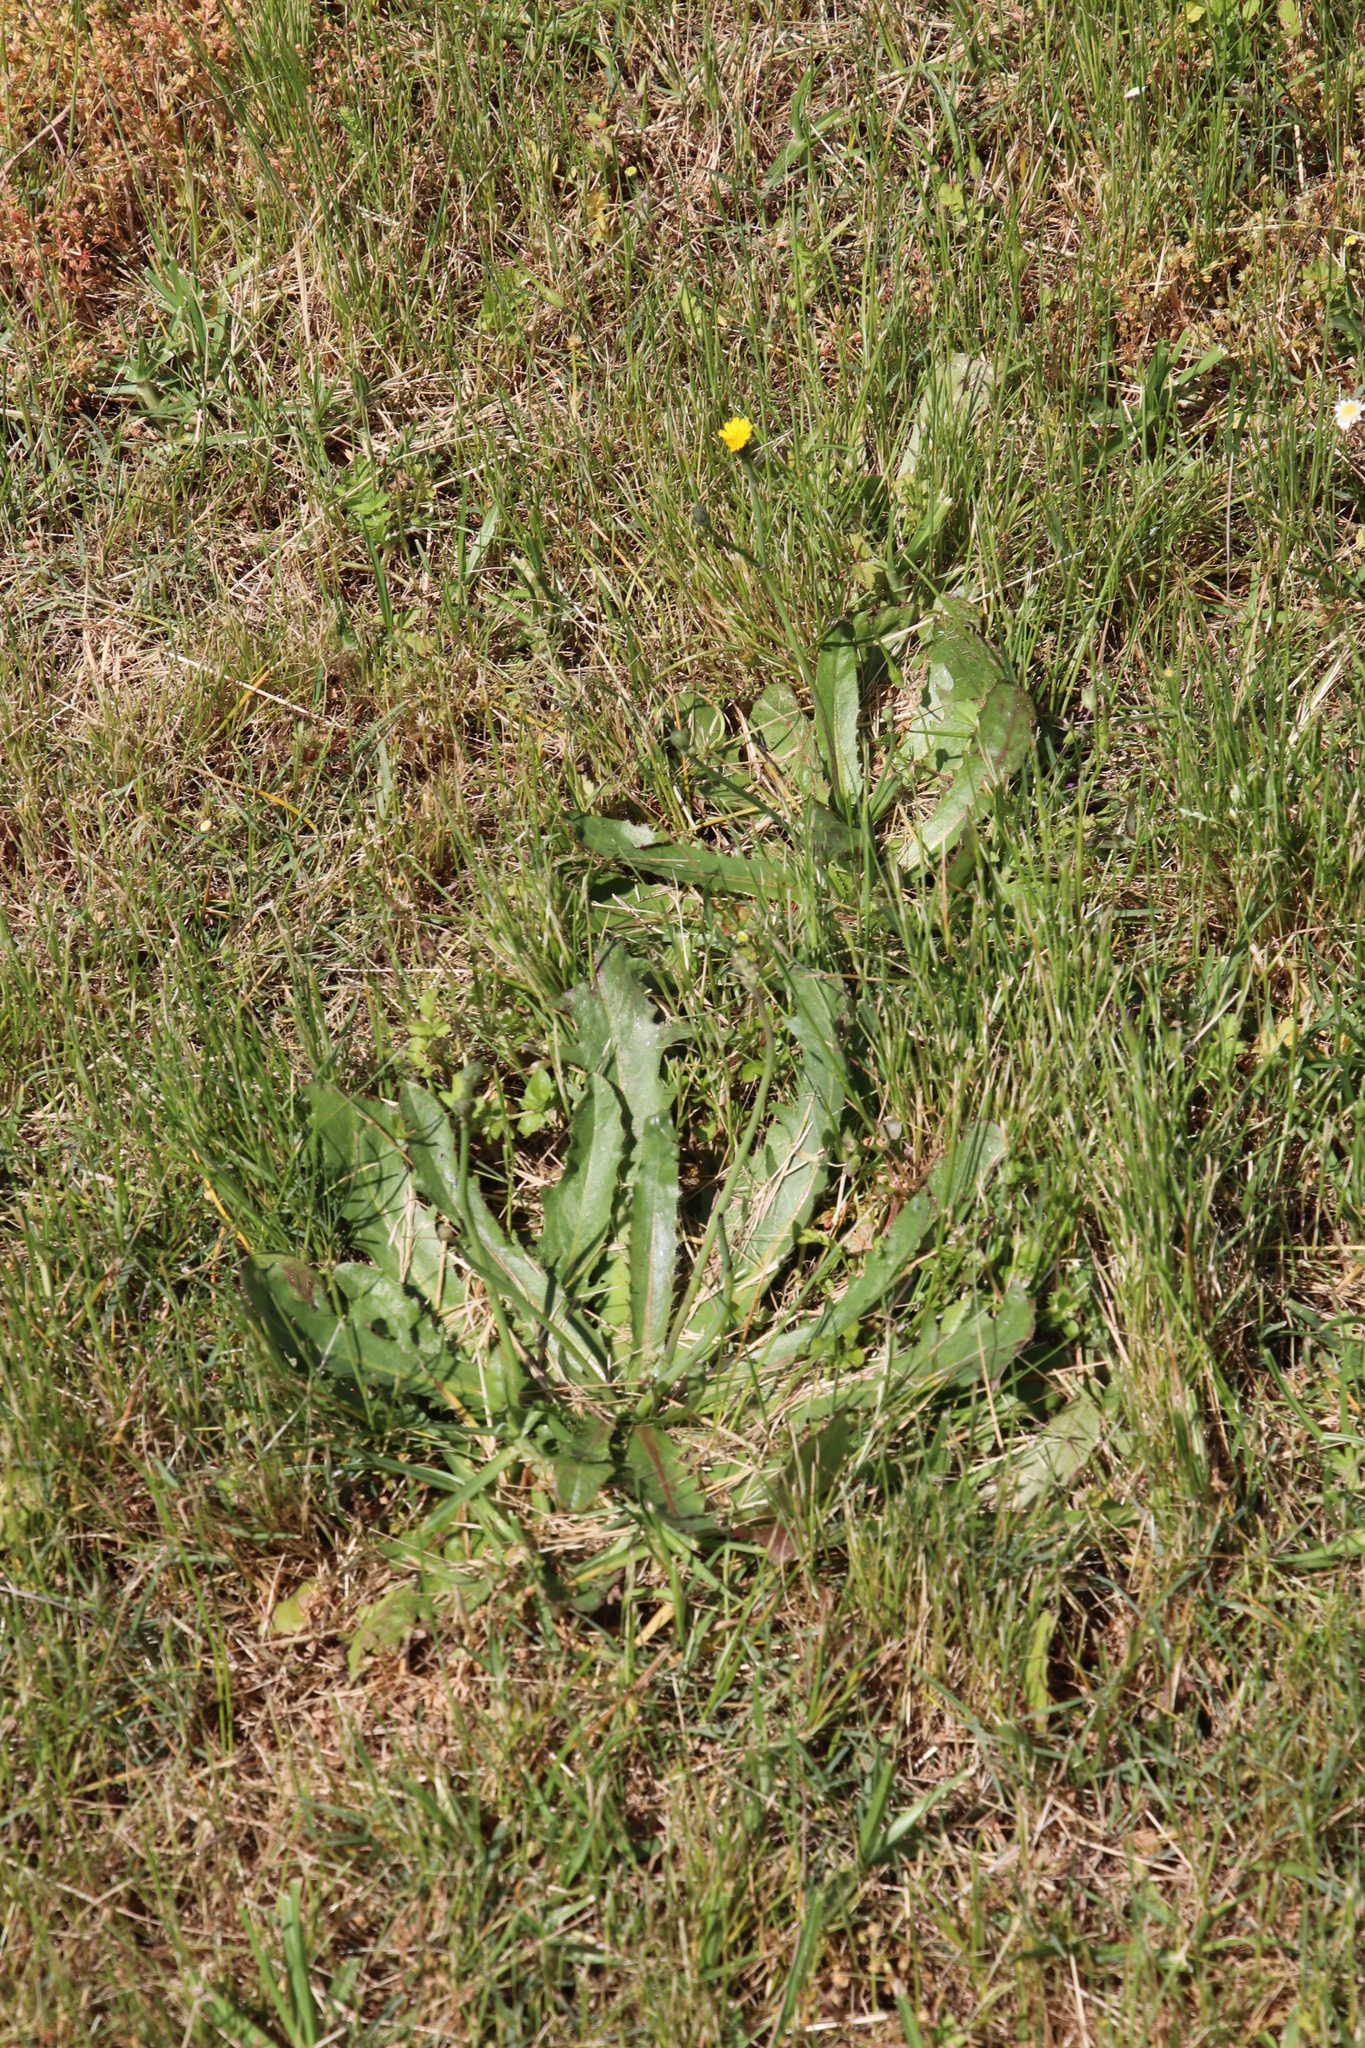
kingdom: Plantae
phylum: Tracheophyta
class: Magnoliopsida
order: Asterales
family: Asteraceae
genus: Hypochaeris
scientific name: Hypochaeris glabra
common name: Smooth catsear
